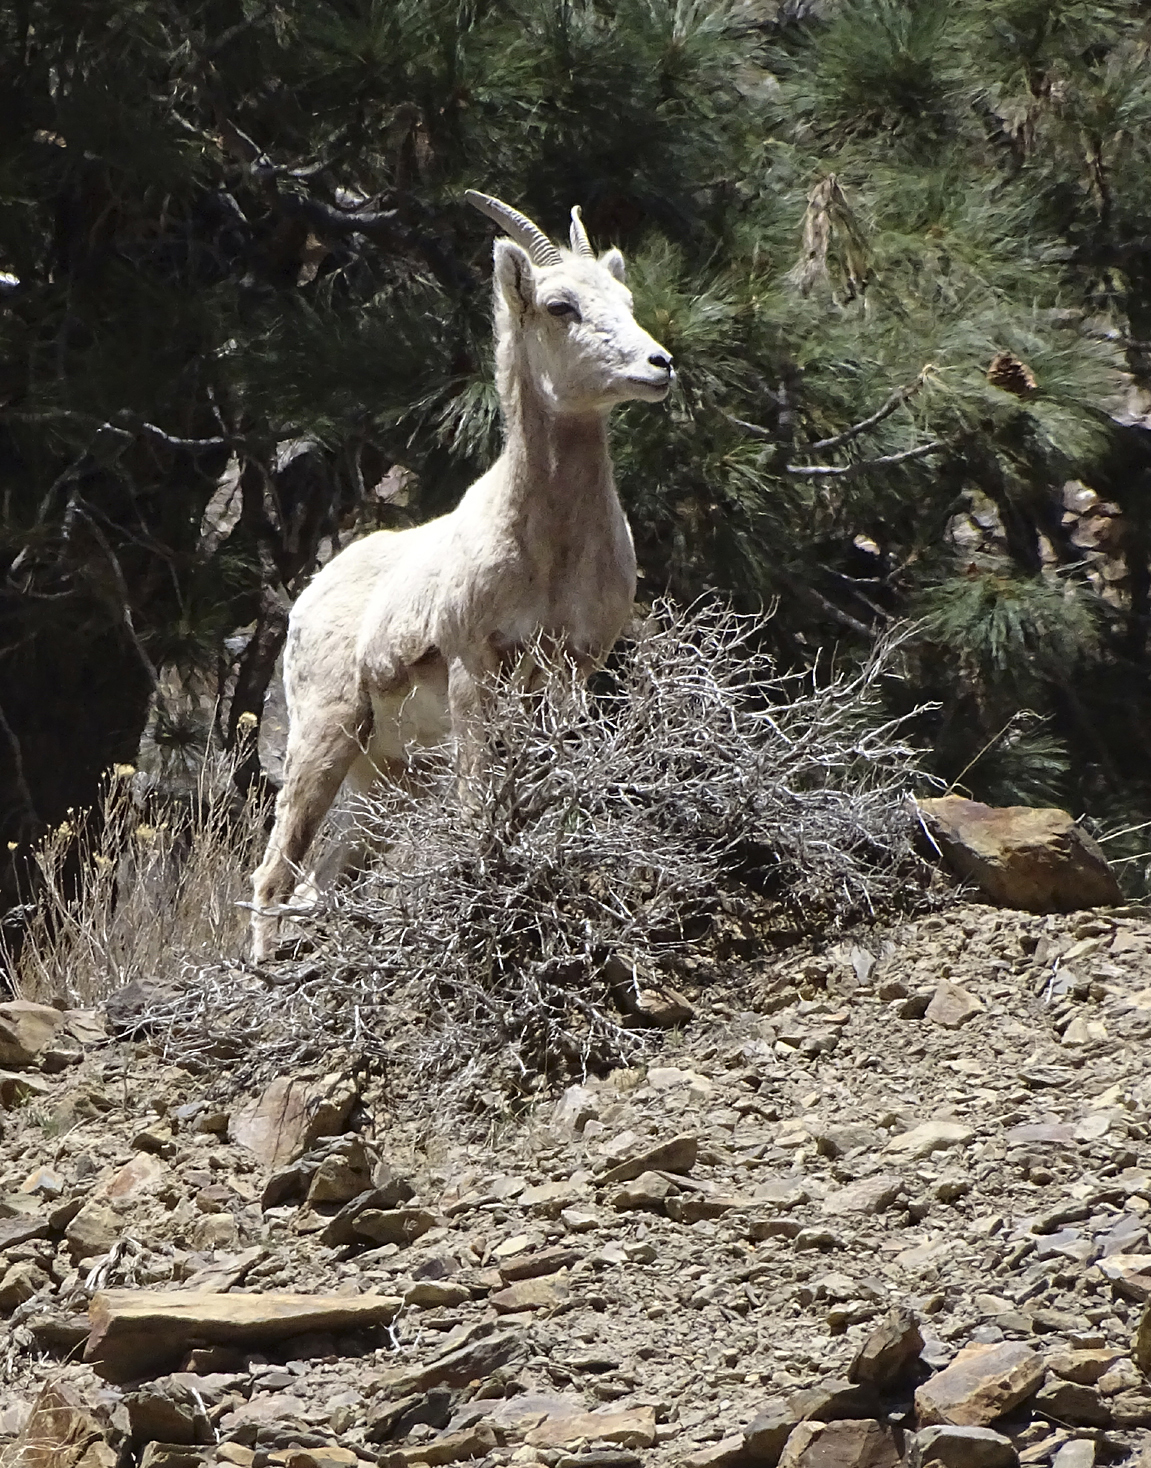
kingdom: Animalia
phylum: Chordata
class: Mammalia
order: Artiodactyla
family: Bovidae
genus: Ovis
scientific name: Ovis canadensis
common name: Bighorn sheep
